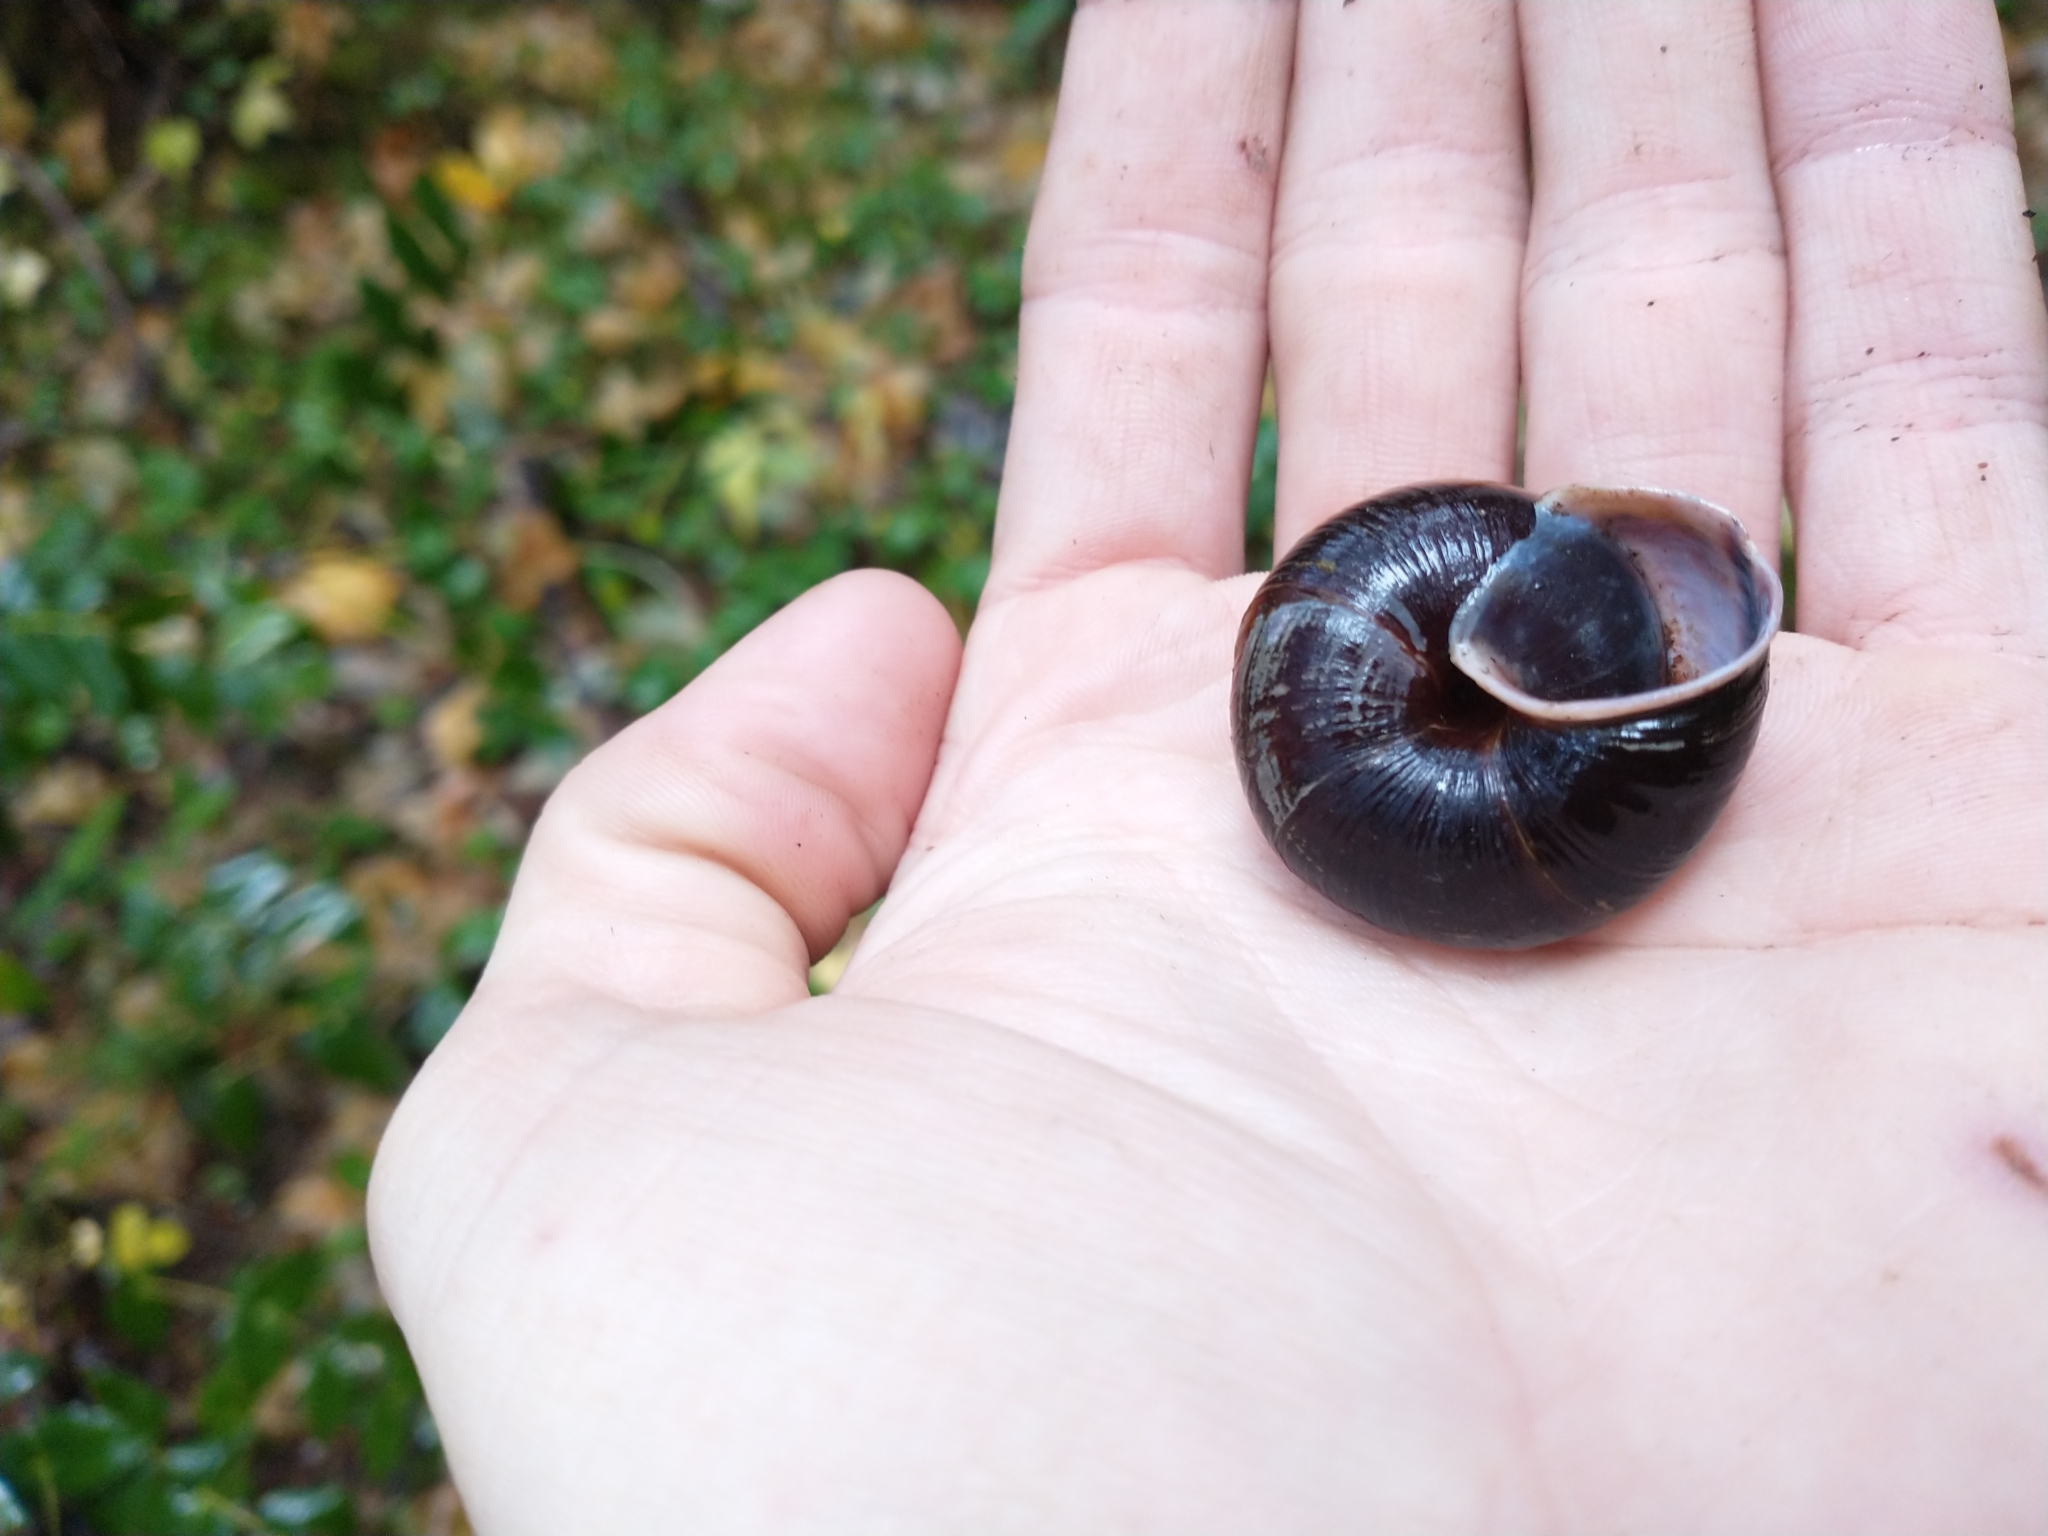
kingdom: Animalia
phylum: Mollusca
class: Gastropoda
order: Stylommatophora
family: Xanthonychidae
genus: Monadenia
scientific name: Monadenia fidelis
